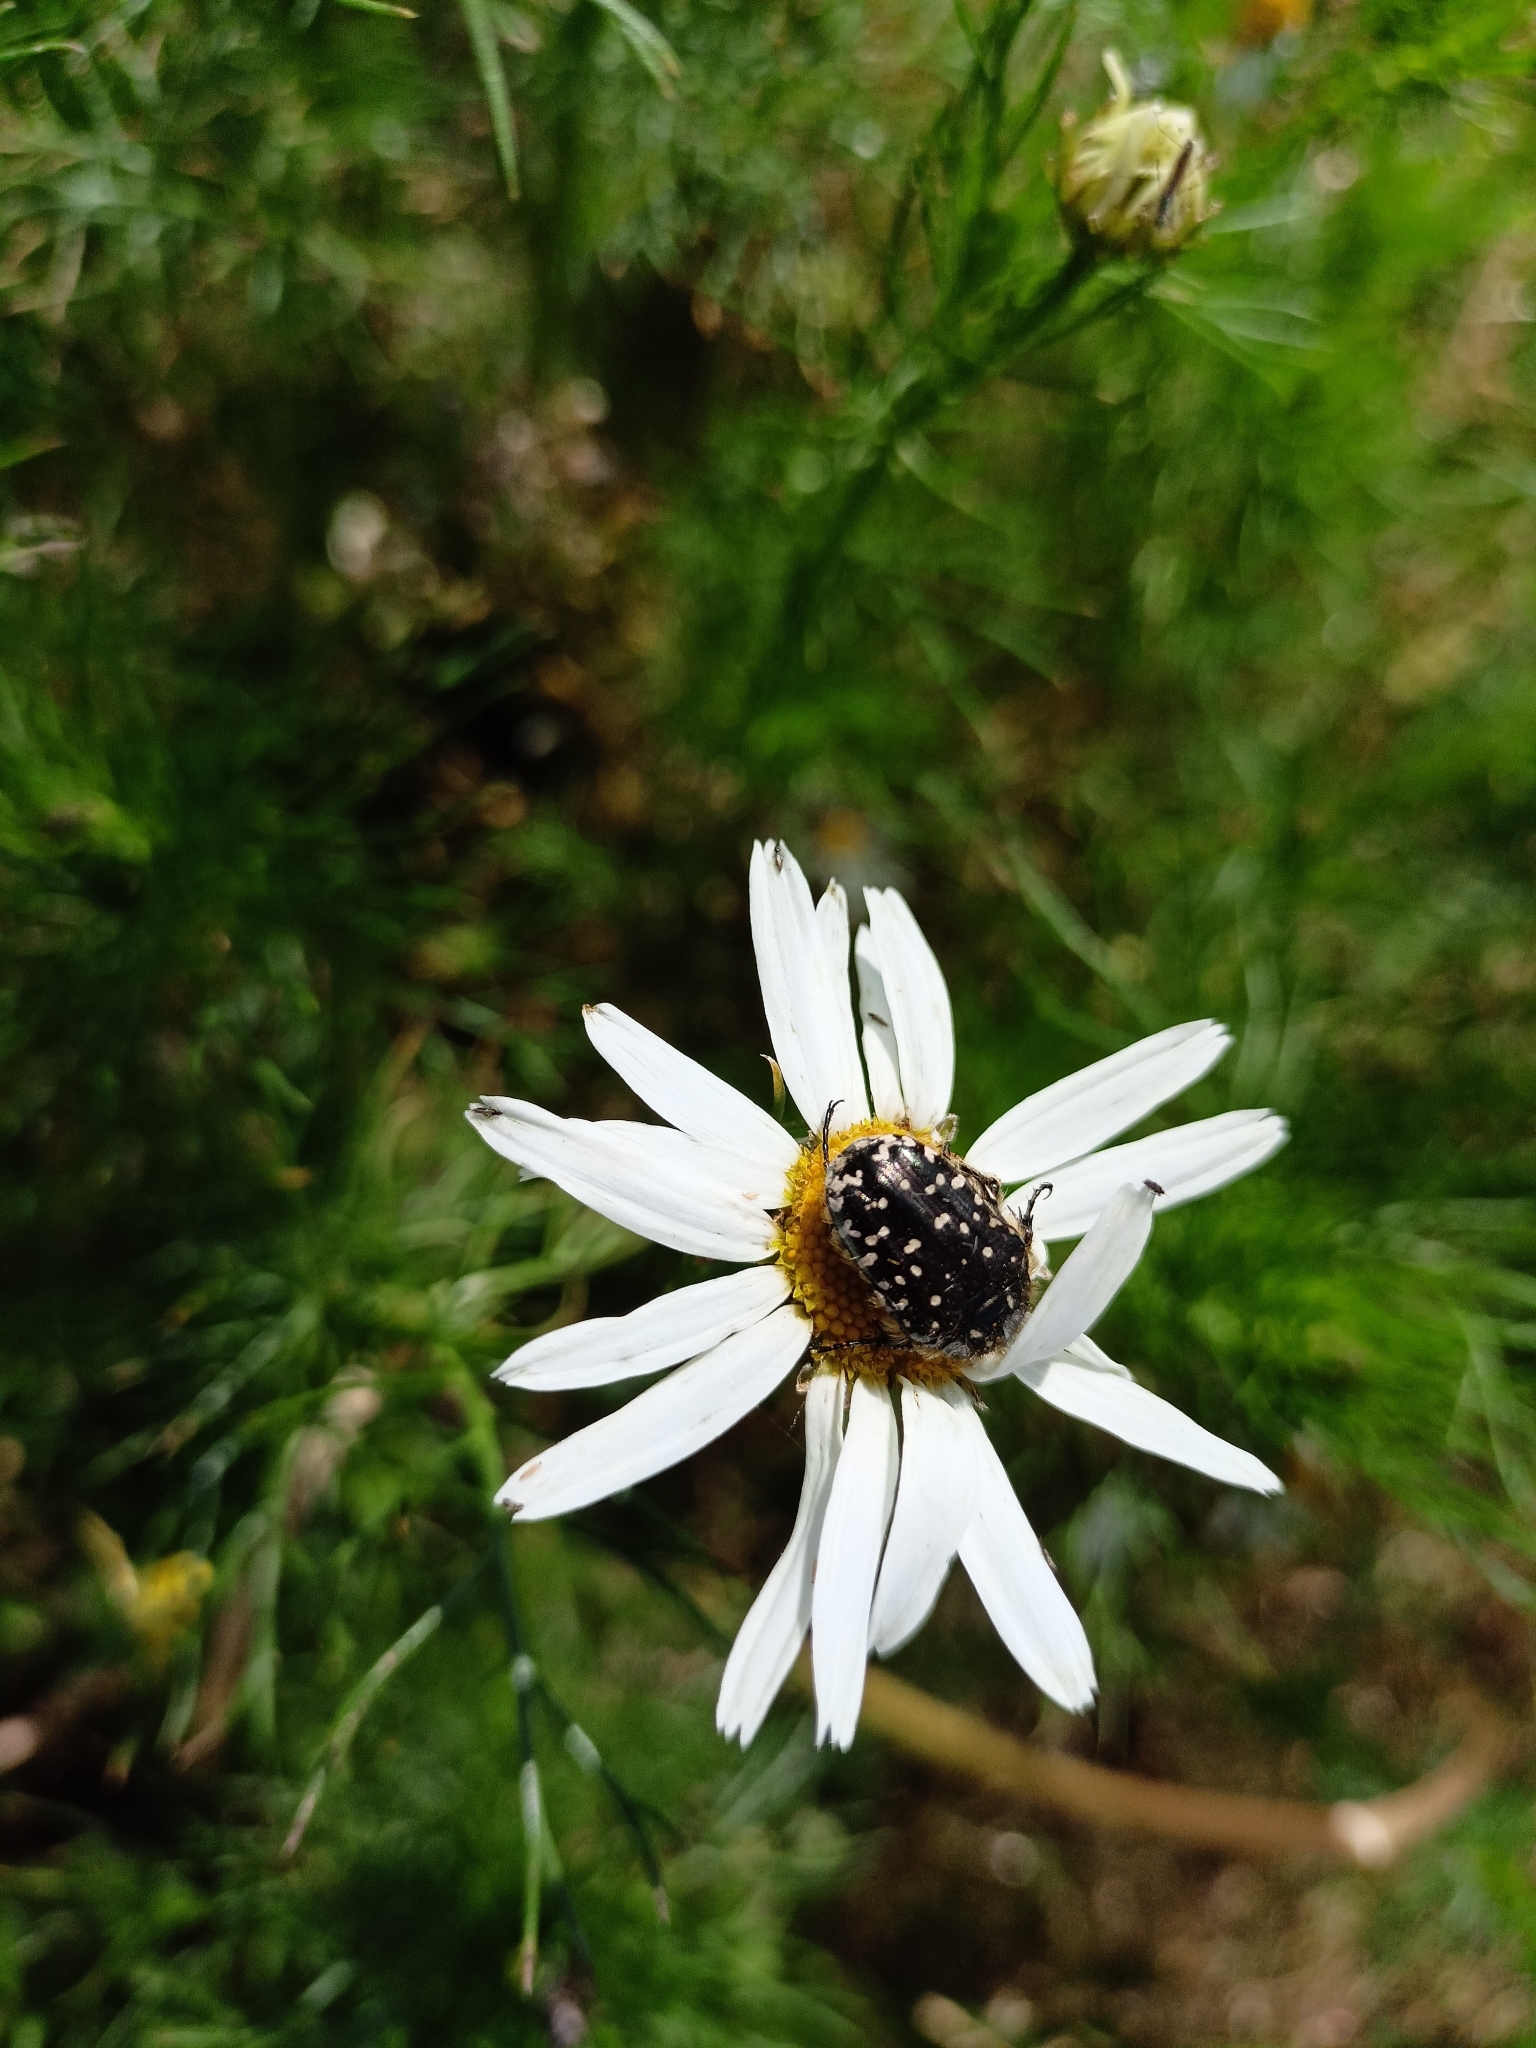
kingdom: Animalia
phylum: Arthropoda
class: Insecta
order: Coleoptera
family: Scarabaeidae
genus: Oxythyrea
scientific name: Oxythyrea funesta
